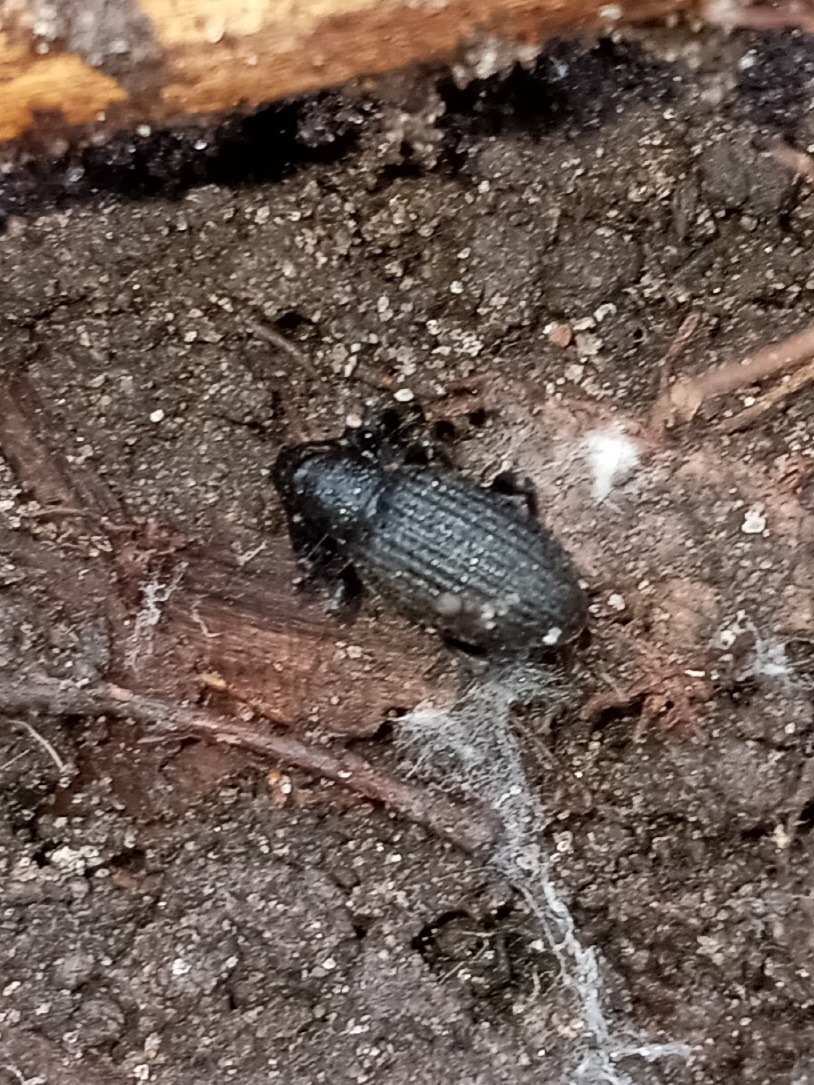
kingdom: Animalia
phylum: Arthropoda
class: Insecta
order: Coleoptera
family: Curculionidae
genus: Otiorhynchus
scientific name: Otiorhynchus sulcatus
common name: Black vine weevil
